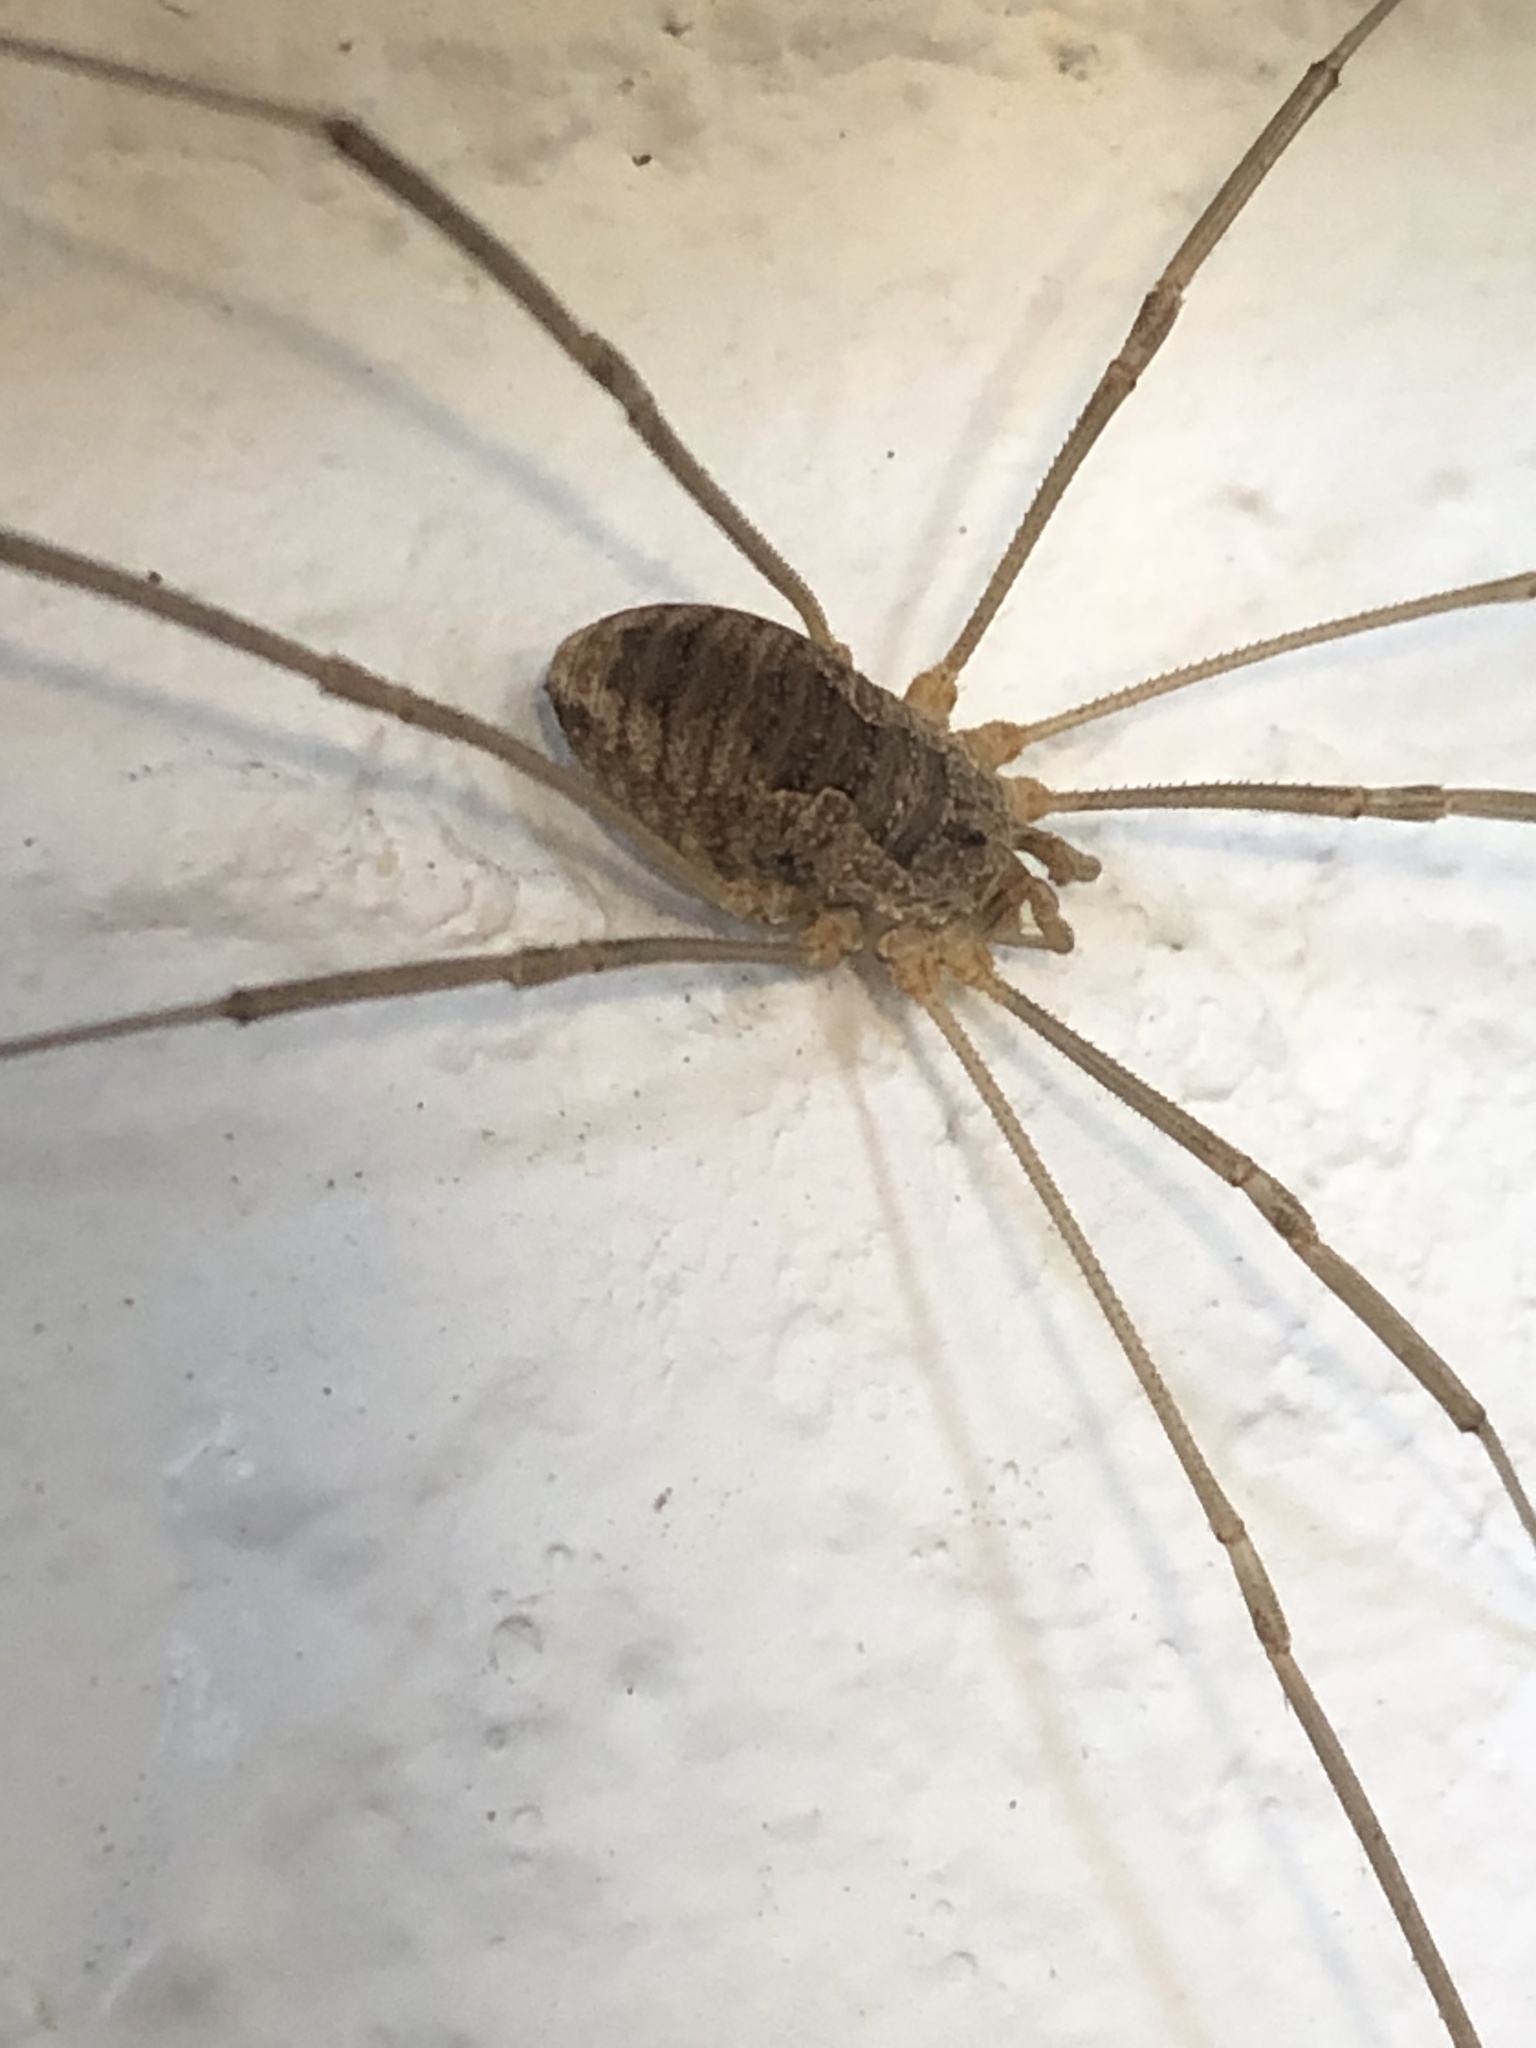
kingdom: Animalia
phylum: Arthropoda
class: Arachnida
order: Opiliones
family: Phalangiidae
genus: Phalangium
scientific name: Phalangium opilio
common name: Daddy longleg
